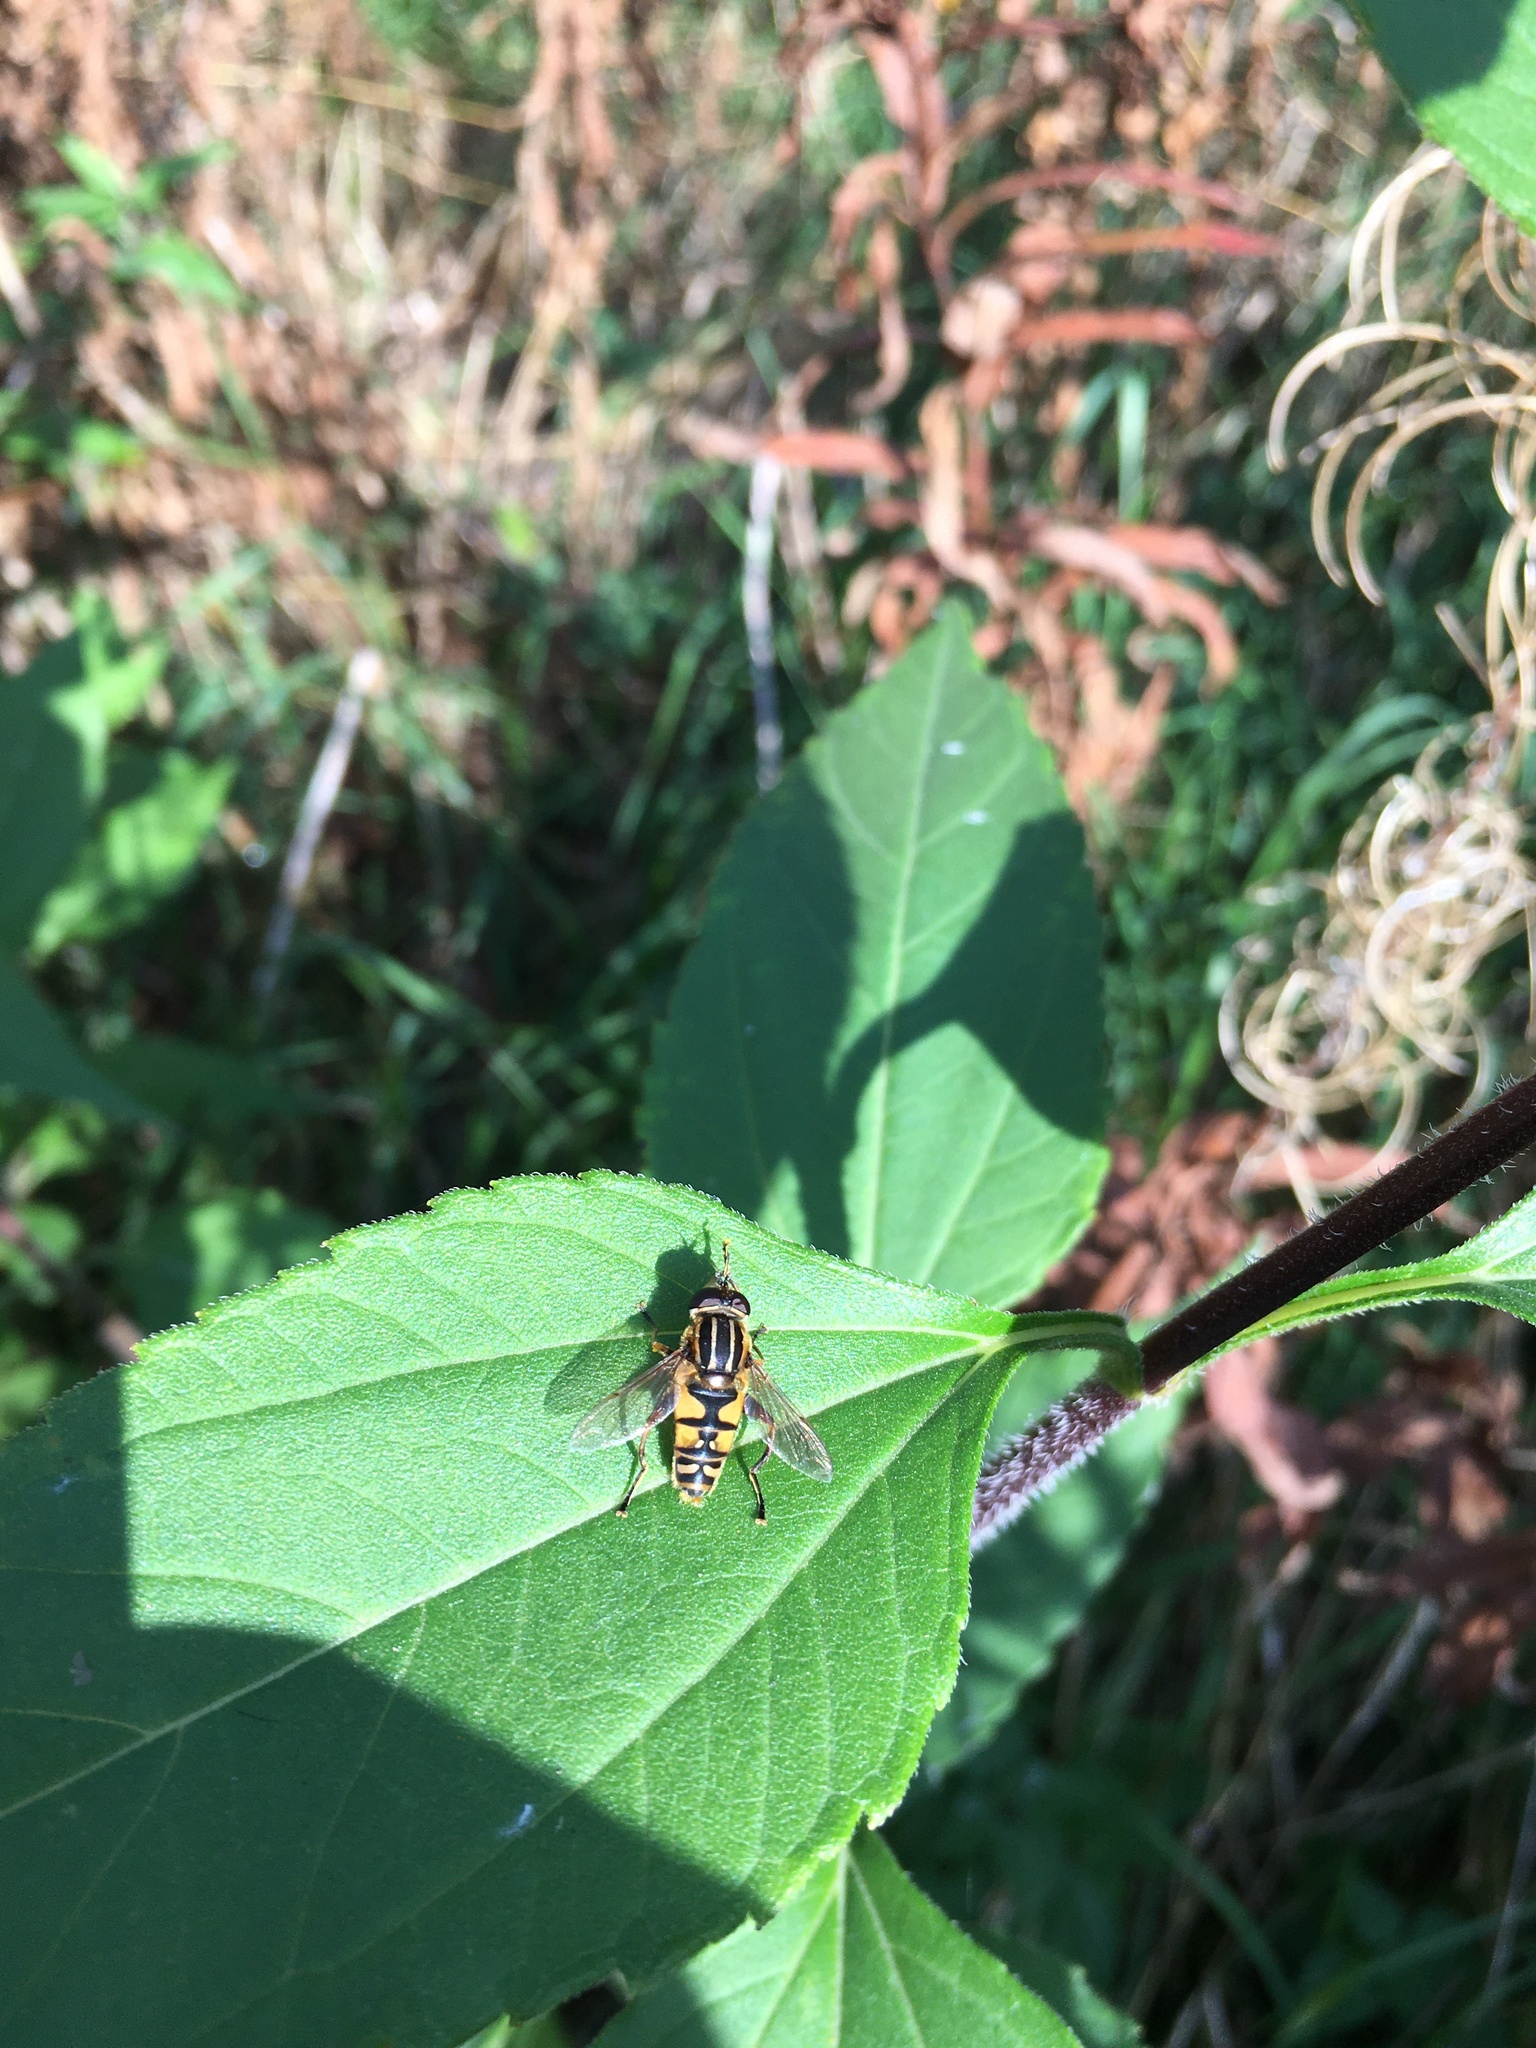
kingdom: Animalia
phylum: Arthropoda
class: Insecta
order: Diptera
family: Syrphidae
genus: Helophilus
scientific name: Helophilus pendulus
